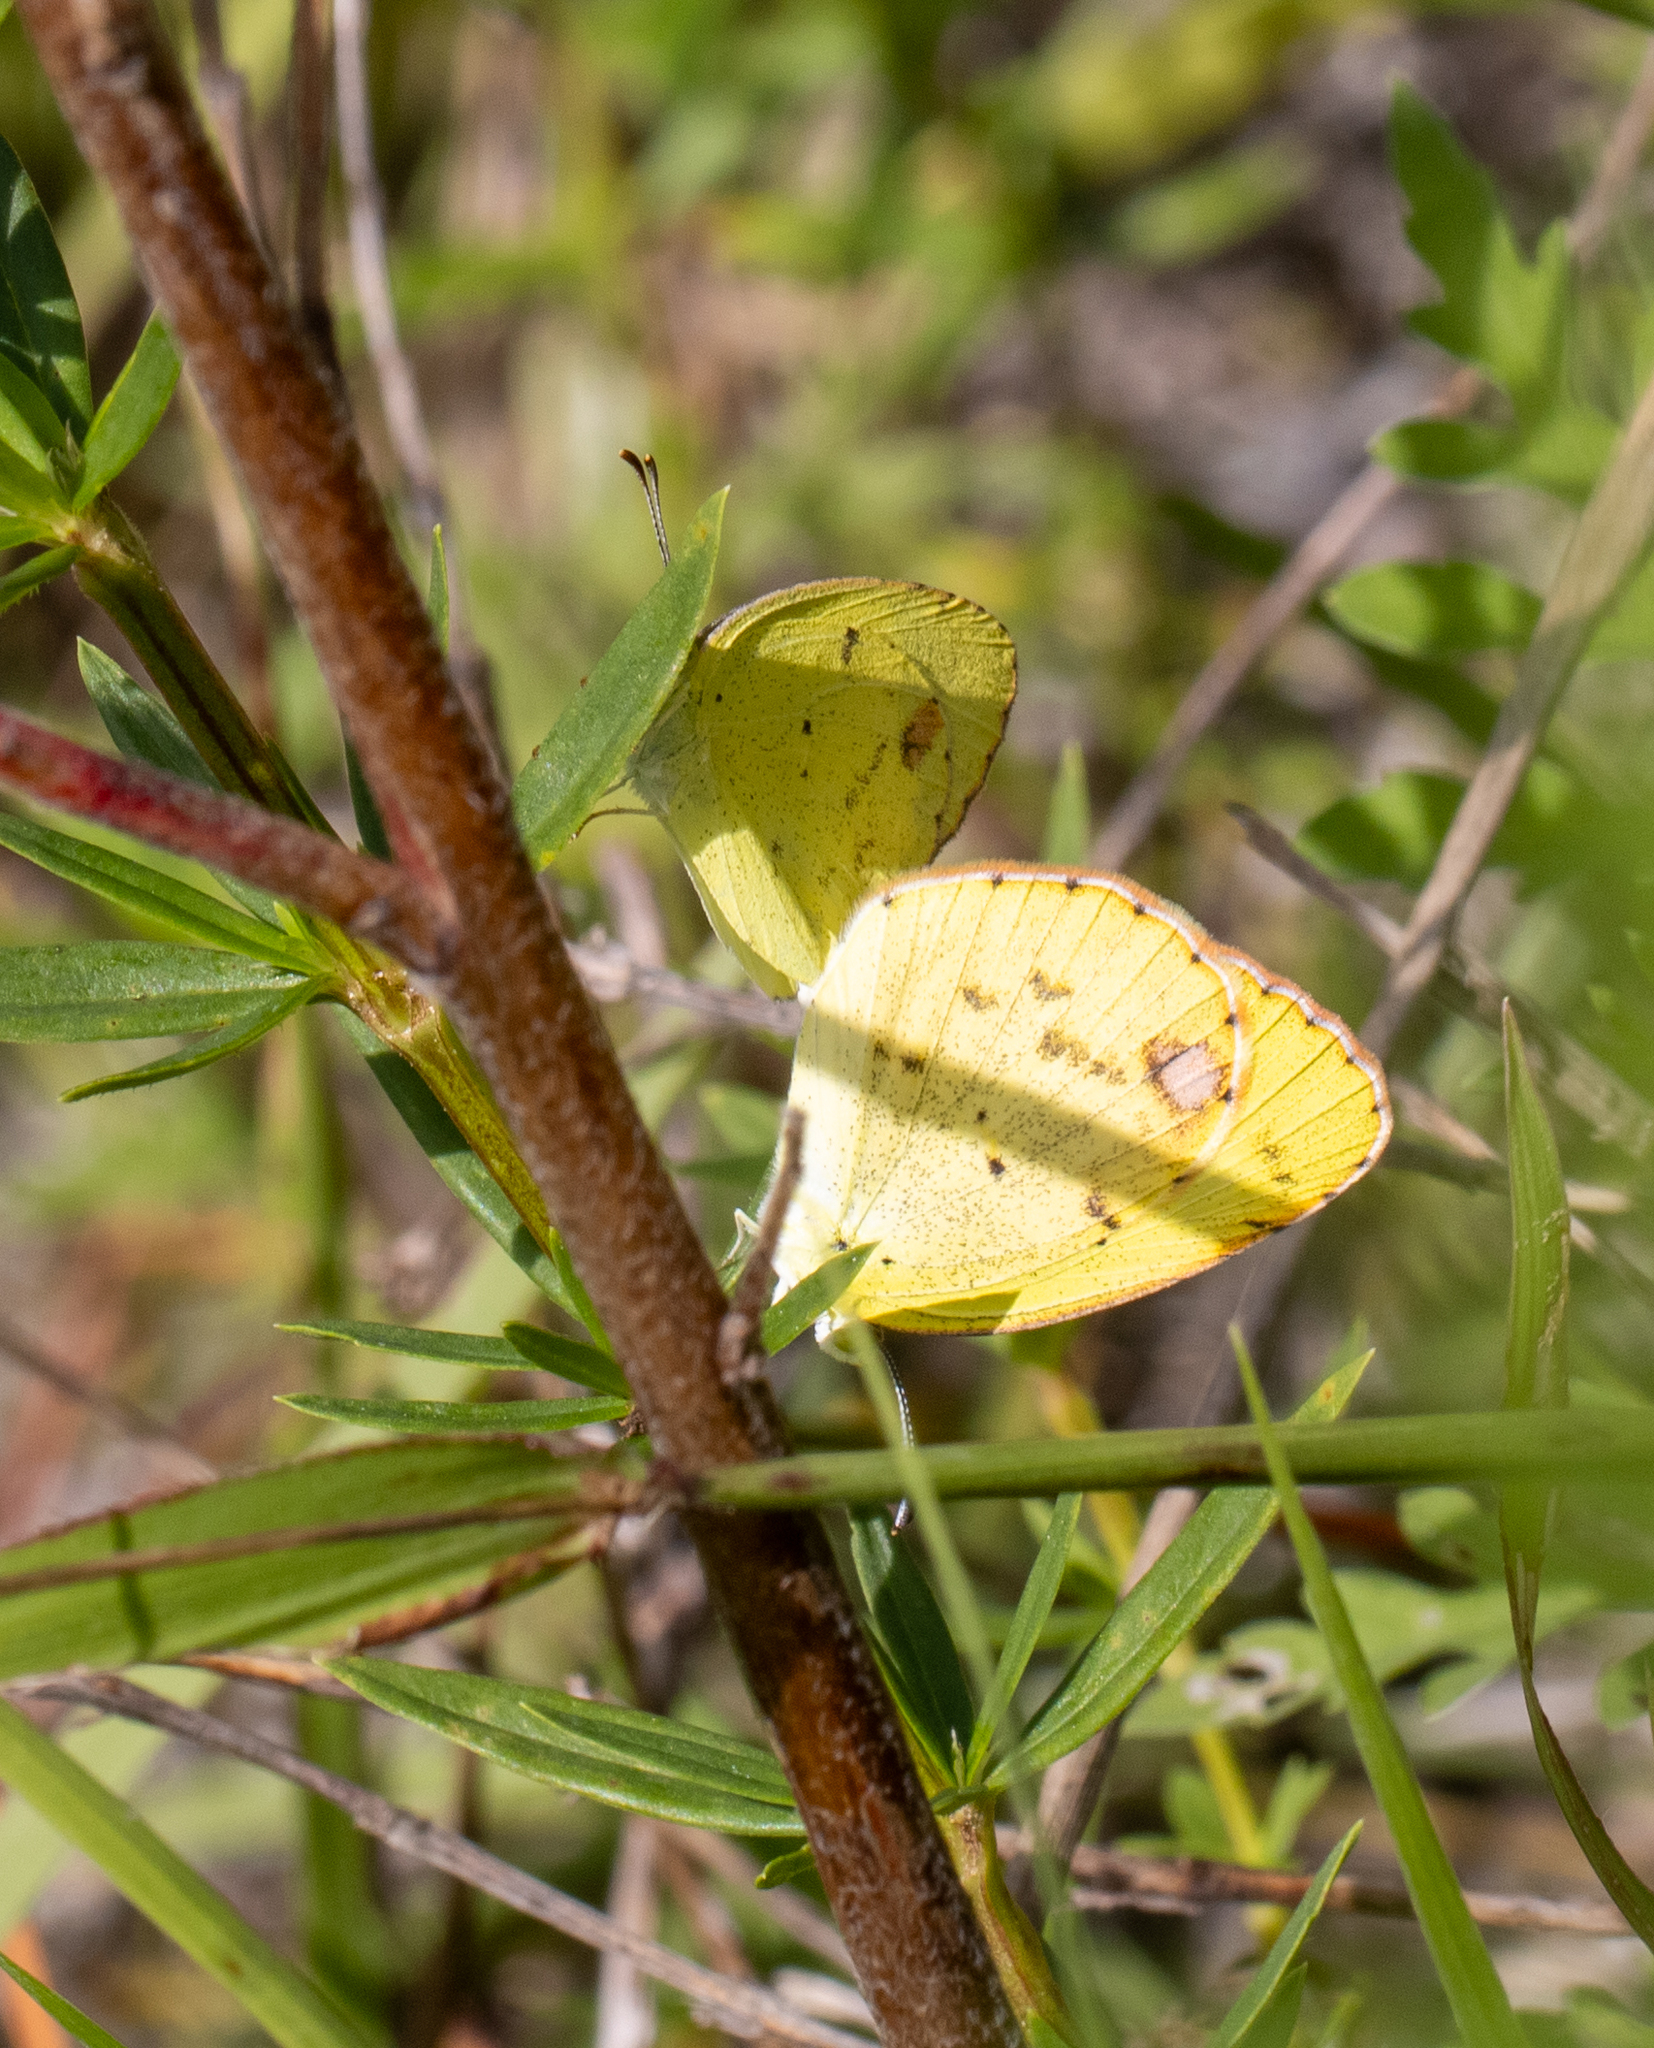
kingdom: Animalia
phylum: Arthropoda
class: Insecta
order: Lepidoptera
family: Pieridae
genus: Pyrisitia
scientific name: Pyrisitia lisa
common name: Little yellow
